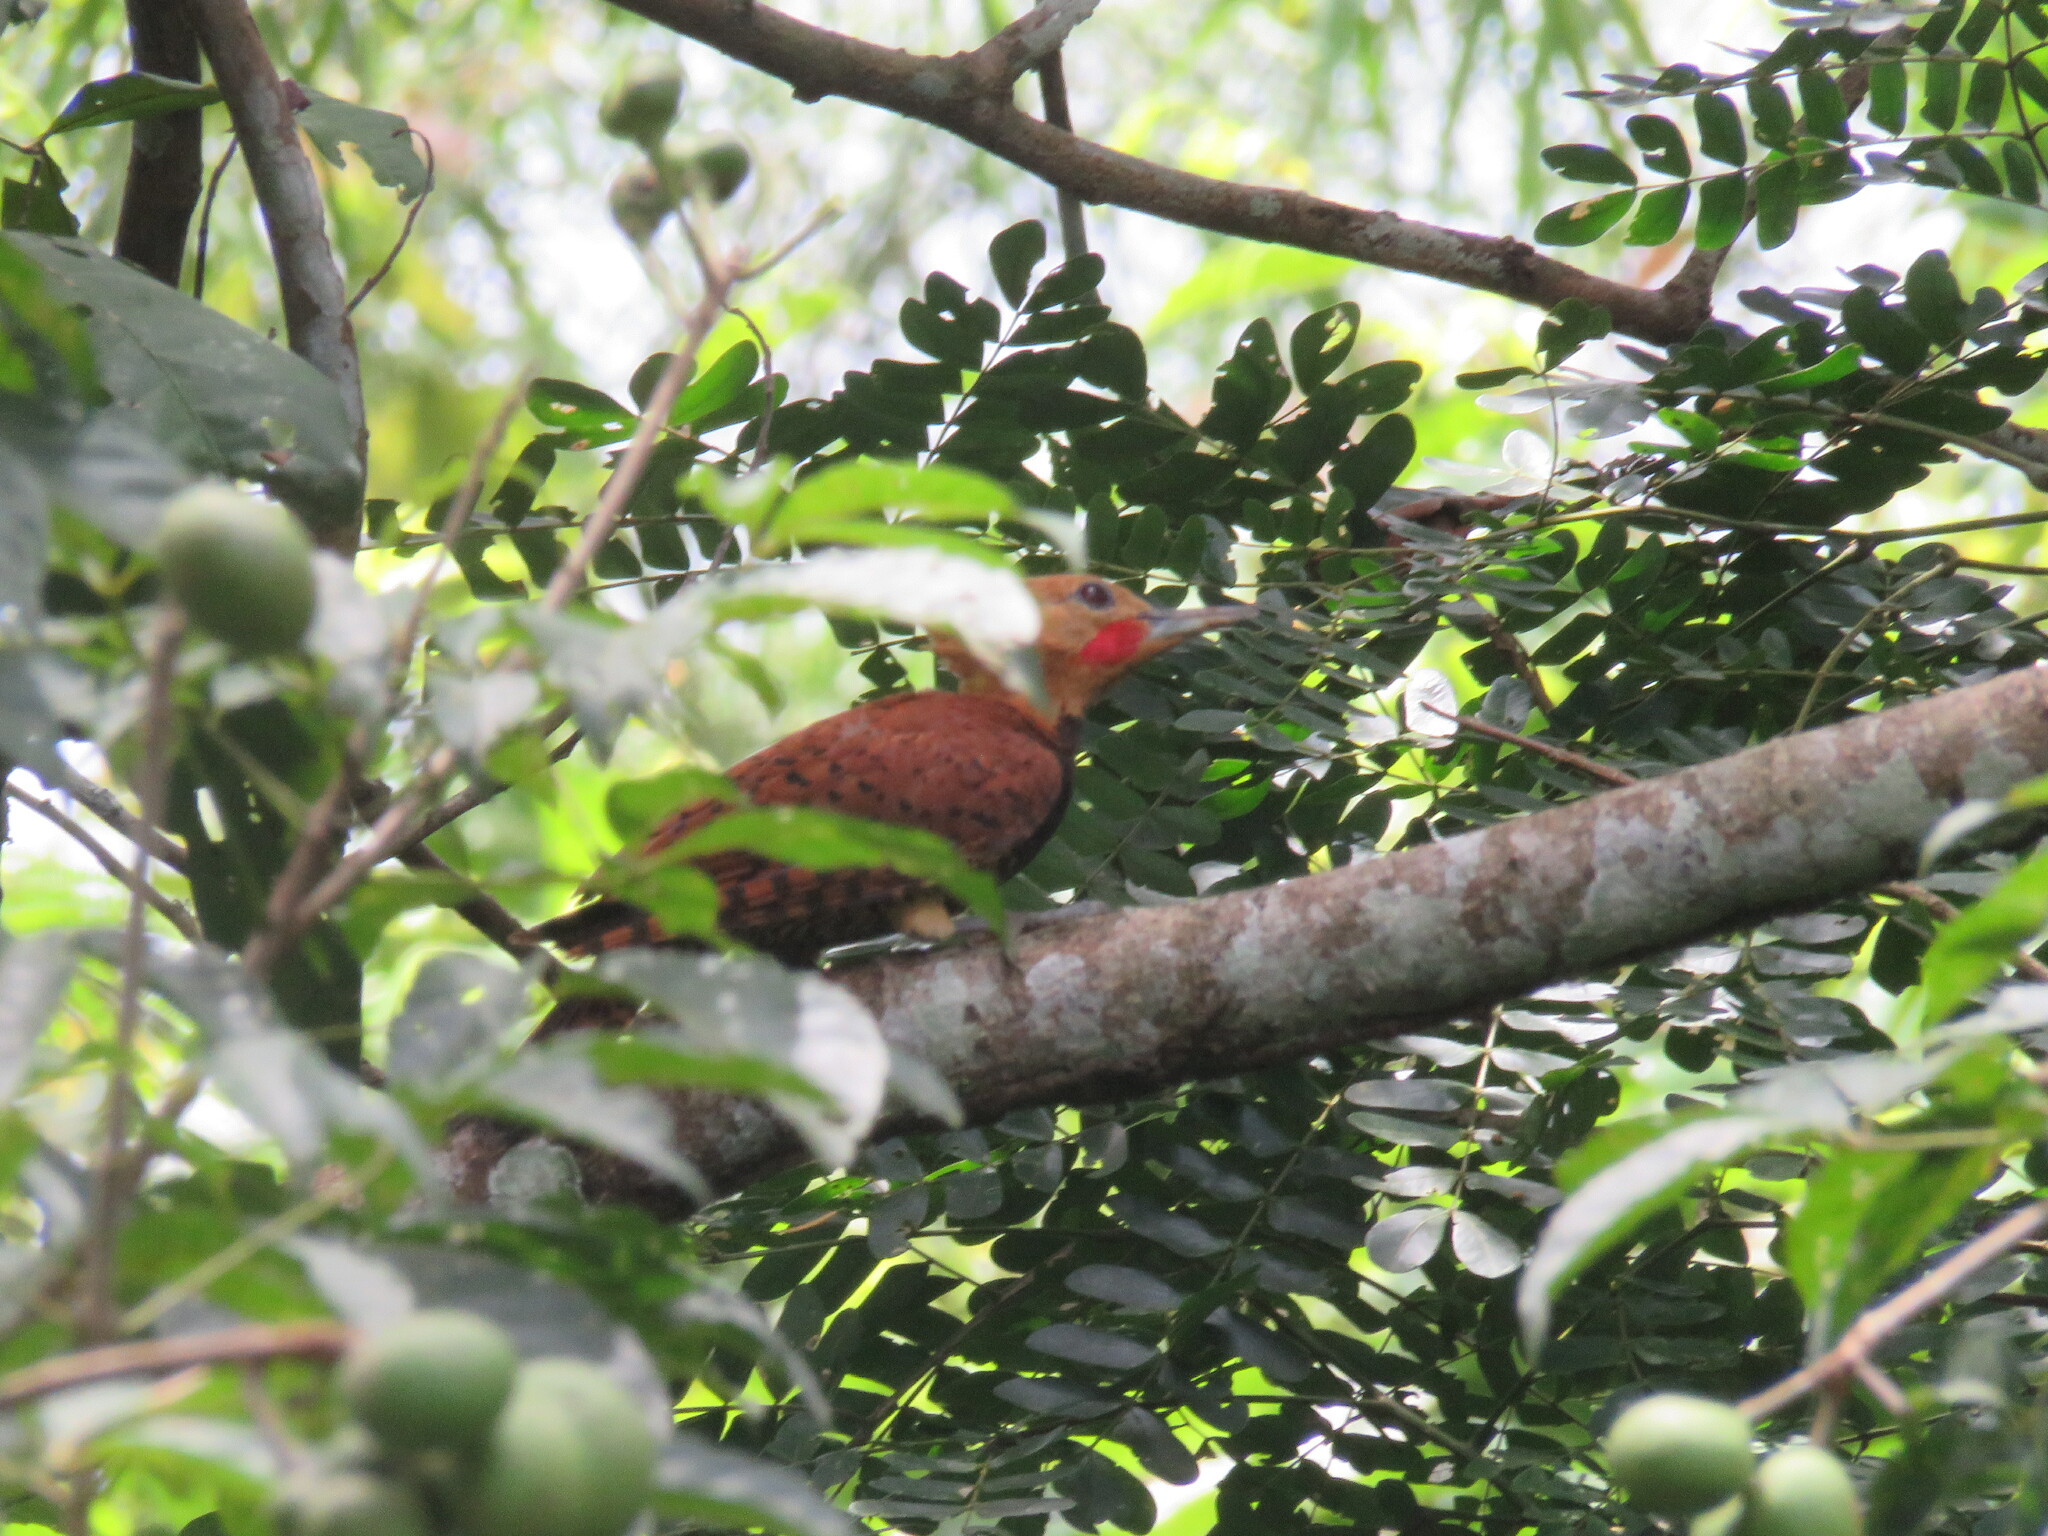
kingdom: Animalia
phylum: Chordata
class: Aves
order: Piciformes
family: Picidae
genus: Celeus
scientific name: Celeus torquatus
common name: Ringed woodpecker
